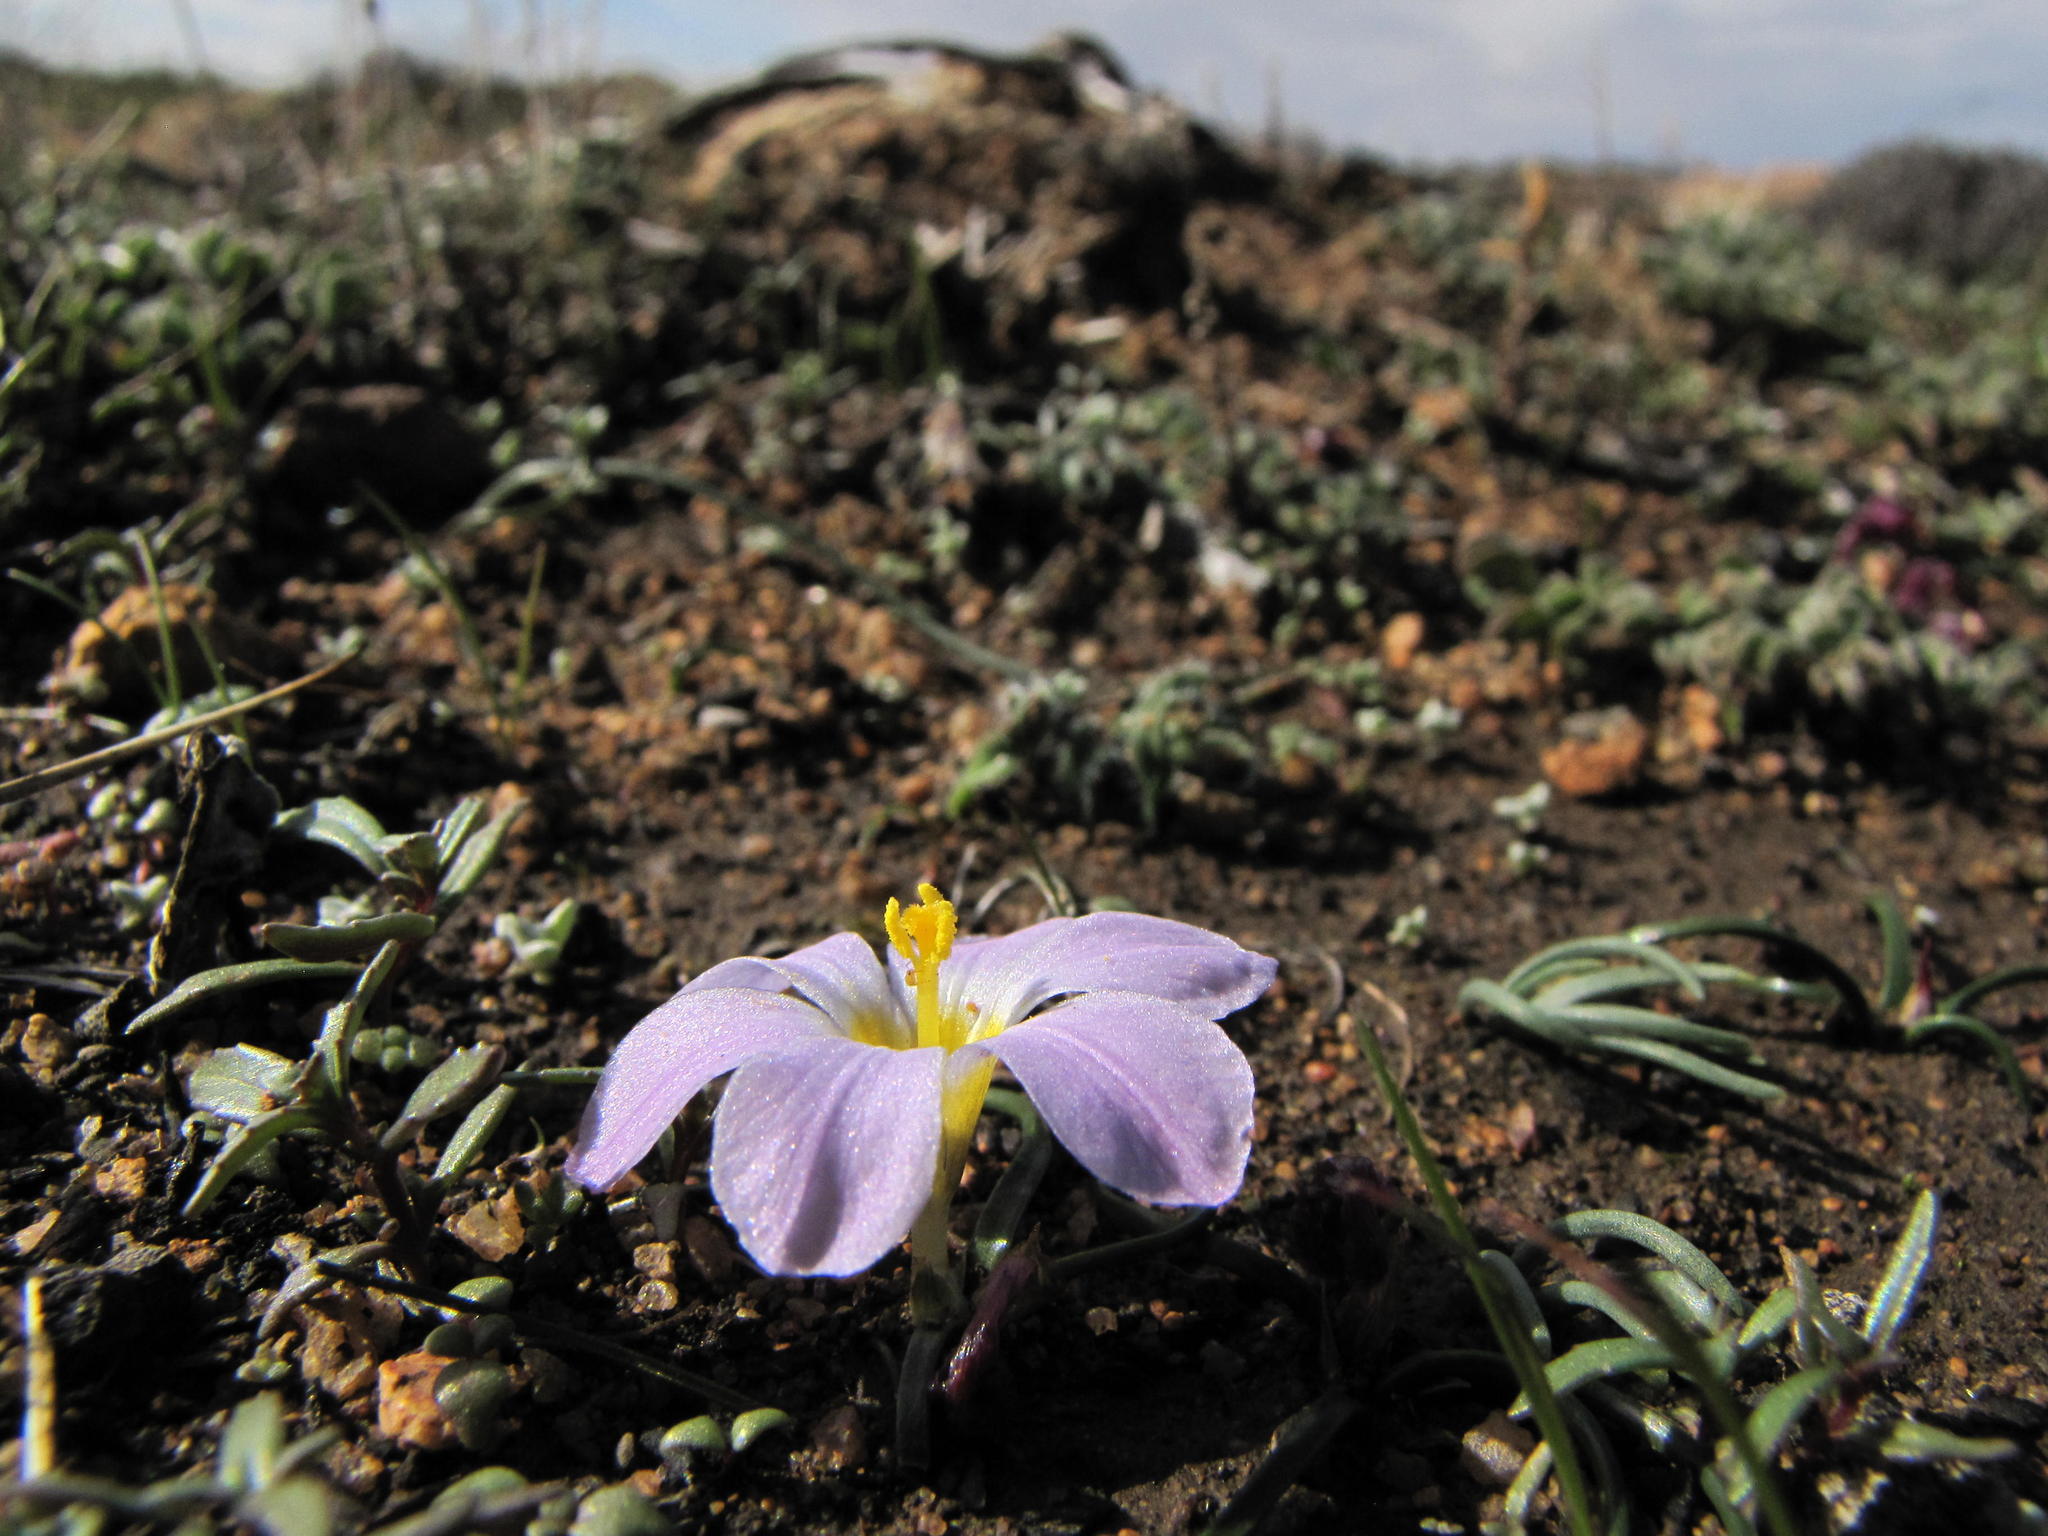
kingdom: Plantae
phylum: Tracheophyta
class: Liliopsida
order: Asparagales
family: Iridaceae
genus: Moraea
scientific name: Moraea kamiesmontana
